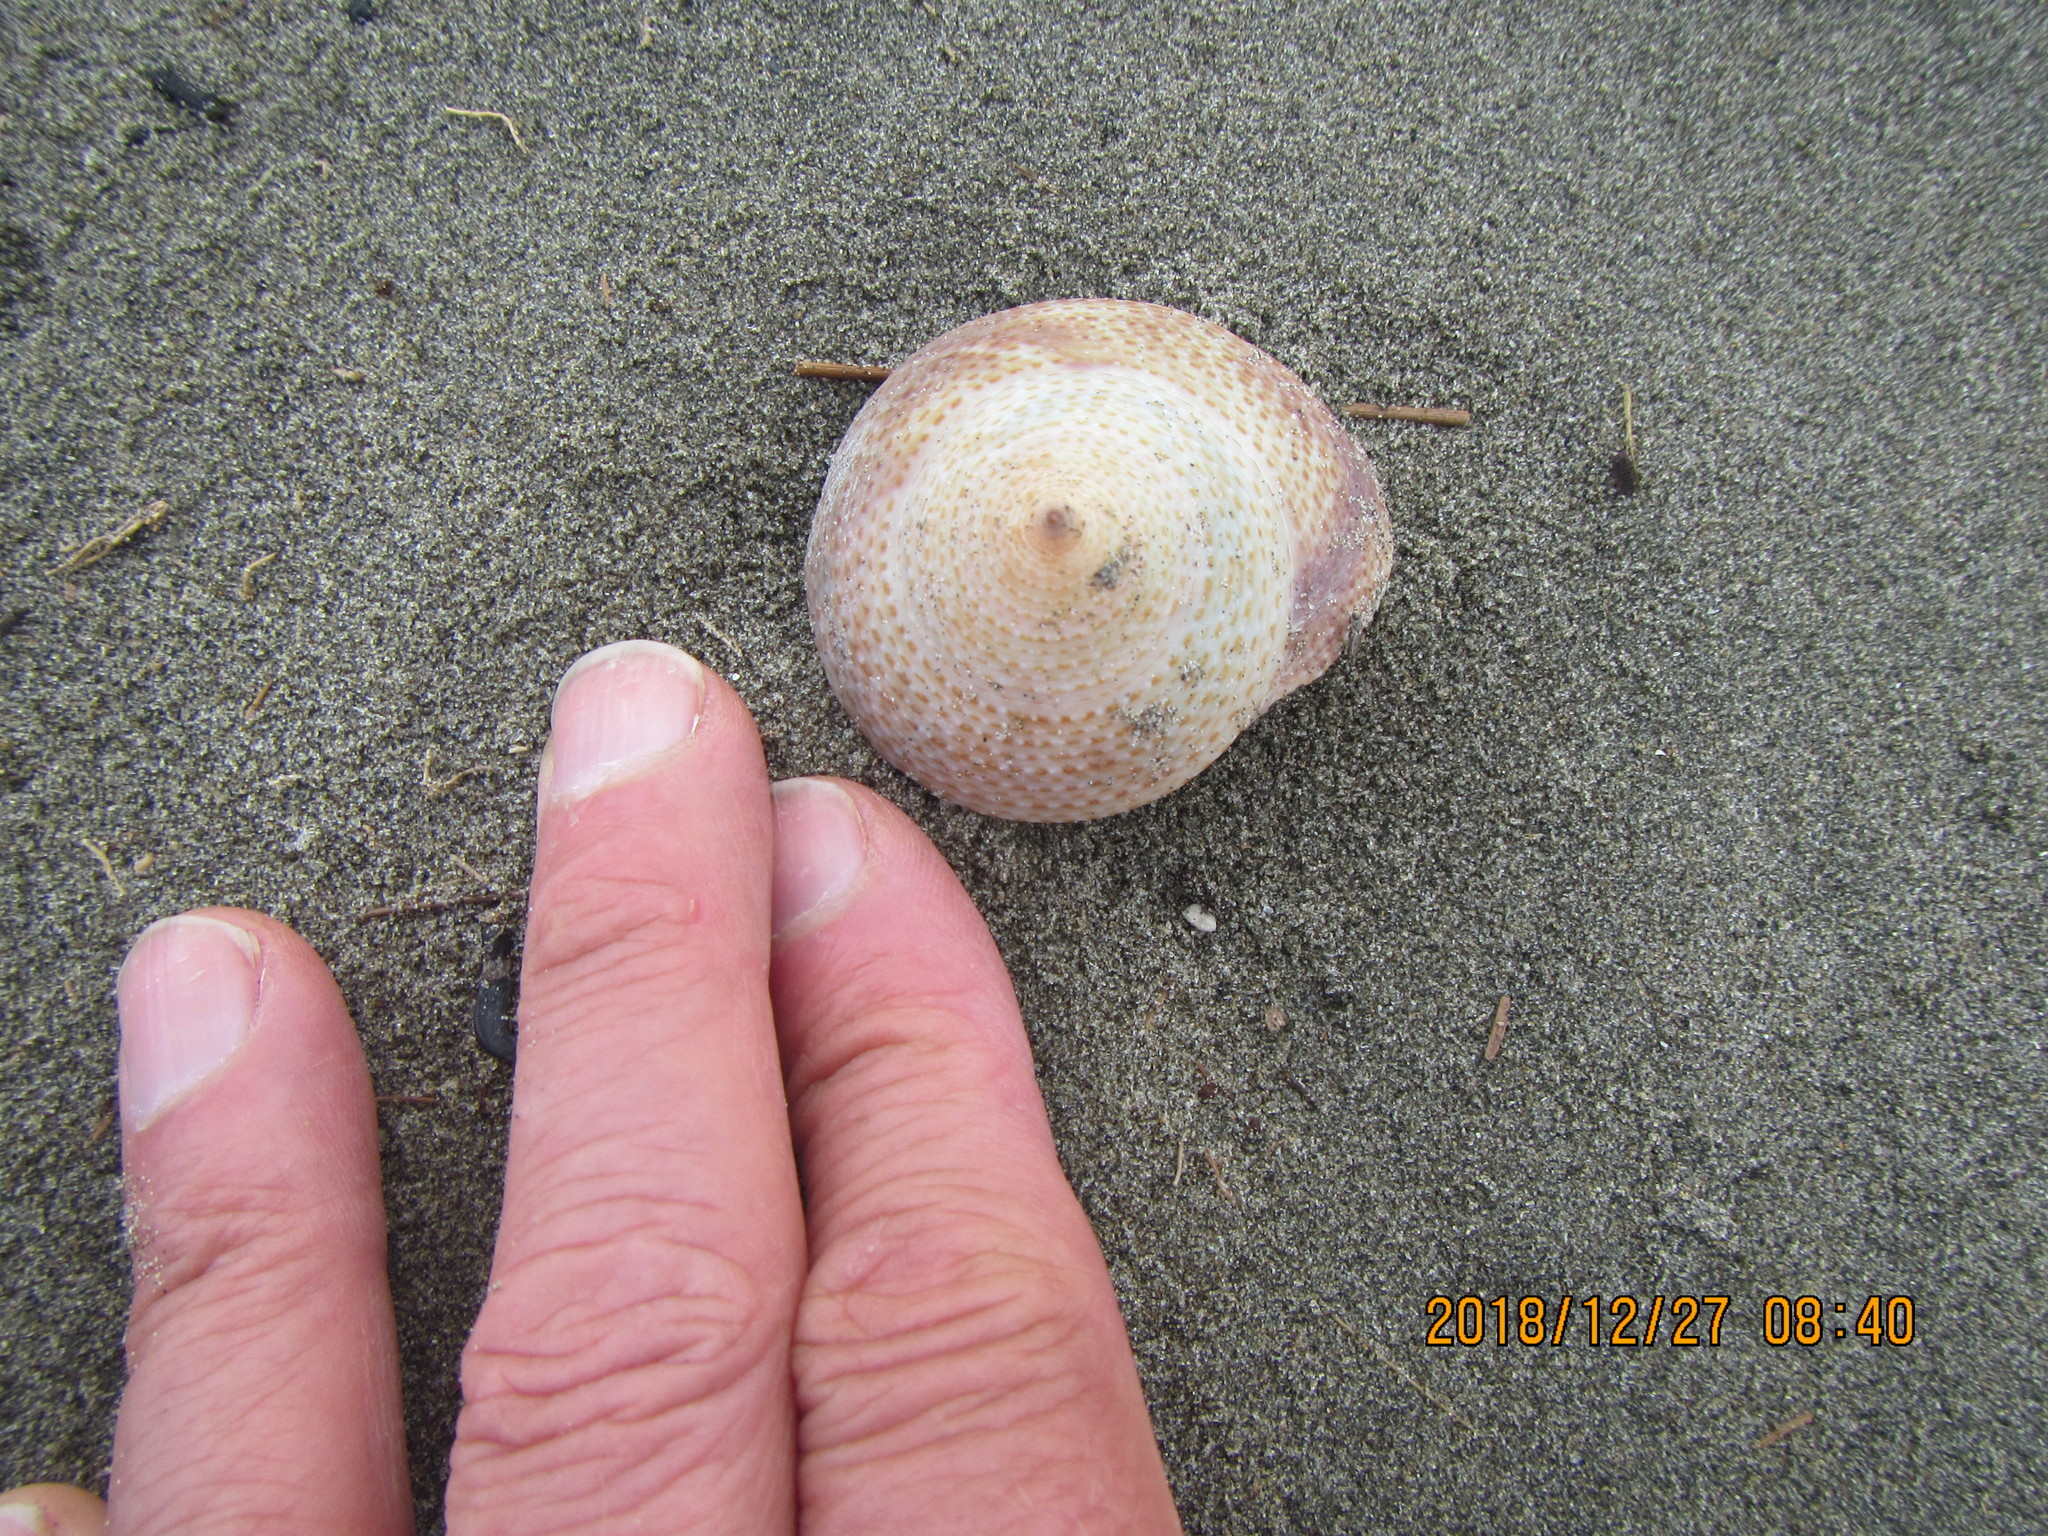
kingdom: Animalia
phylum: Mollusca
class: Gastropoda
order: Trochida
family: Calliostomatidae
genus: Maurea
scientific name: Maurea selecta
